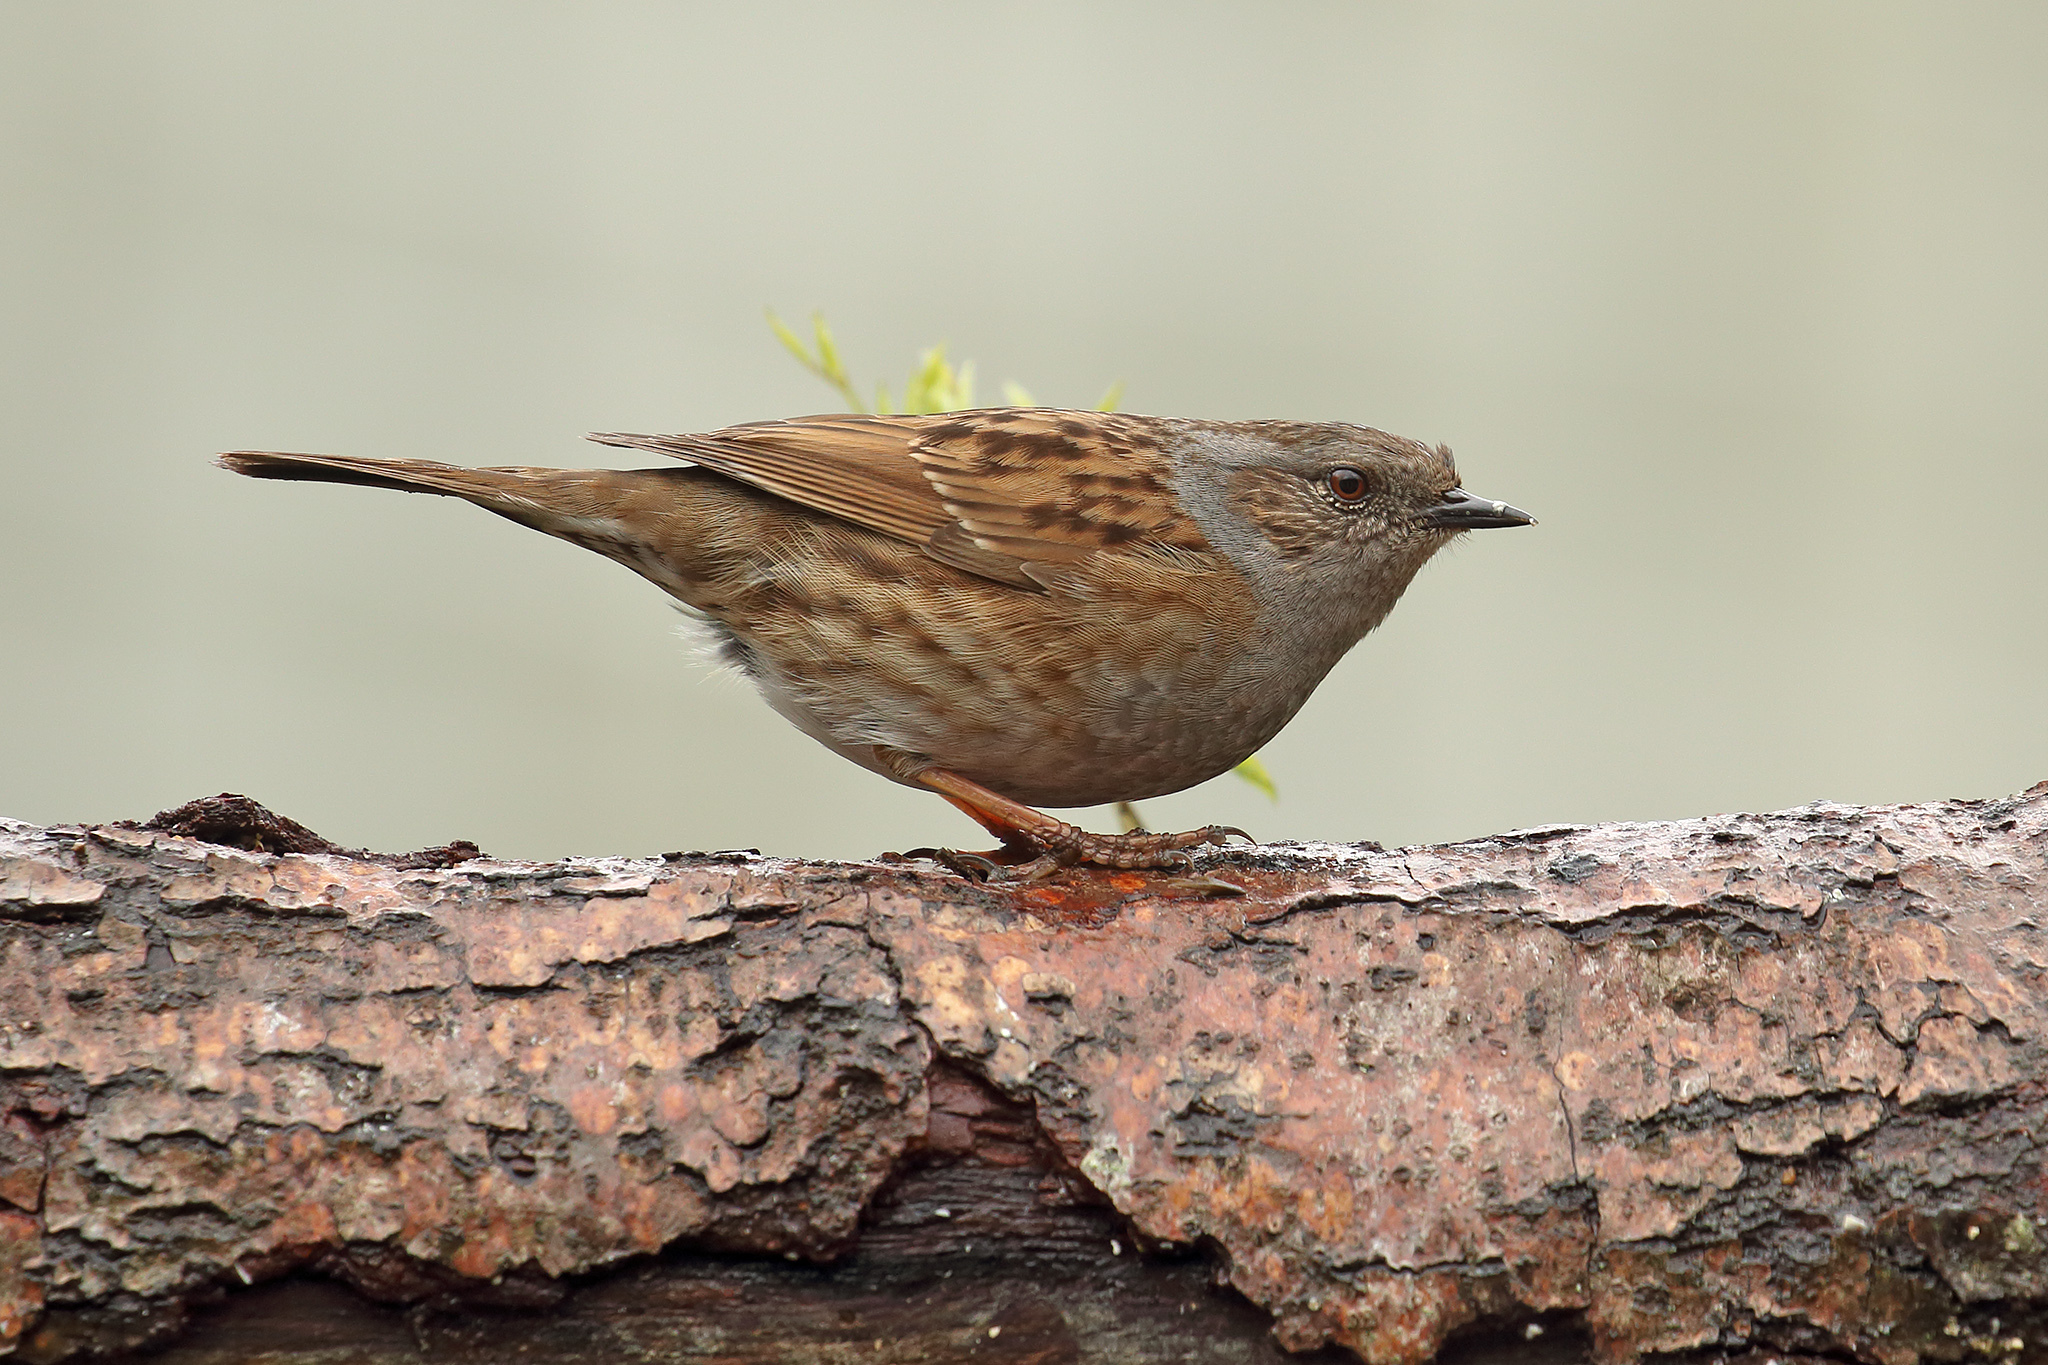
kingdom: Animalia
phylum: Chordata
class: Aves
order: Passeriformes
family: Prunellidae
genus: Prunella
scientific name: Prunella modularis
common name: Dunnock
